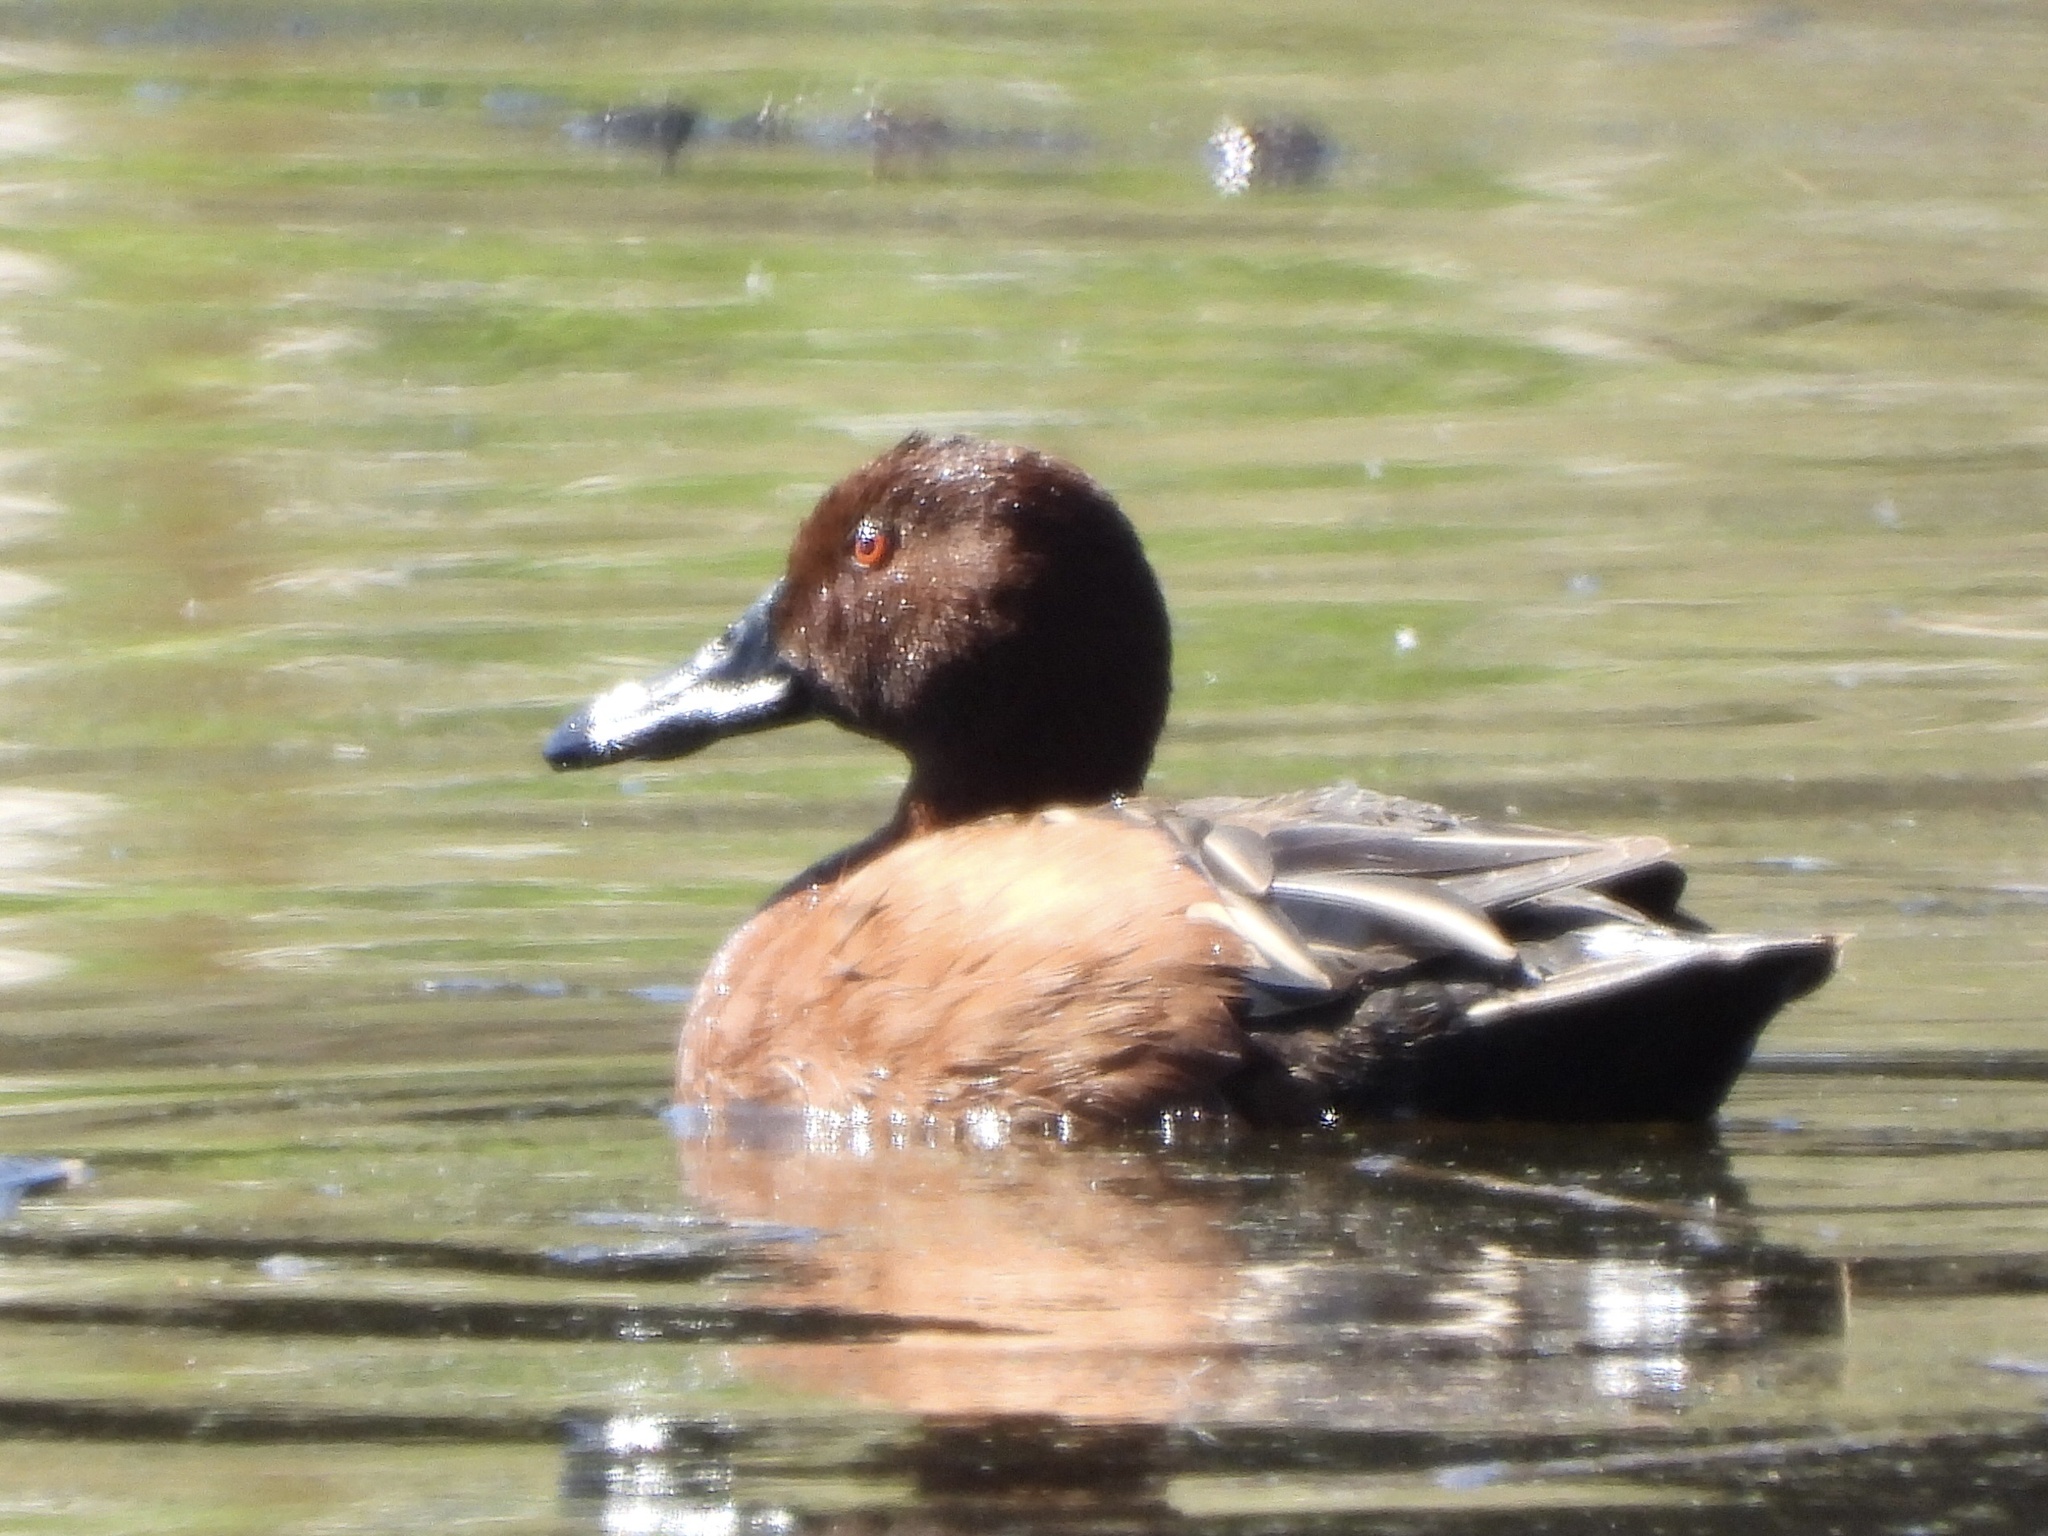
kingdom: Animalia
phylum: Chordata
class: Aves
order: Anseriformes
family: Anatidae
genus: Spatula
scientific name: Spatula cyanoptera
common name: Cinnamon teal
